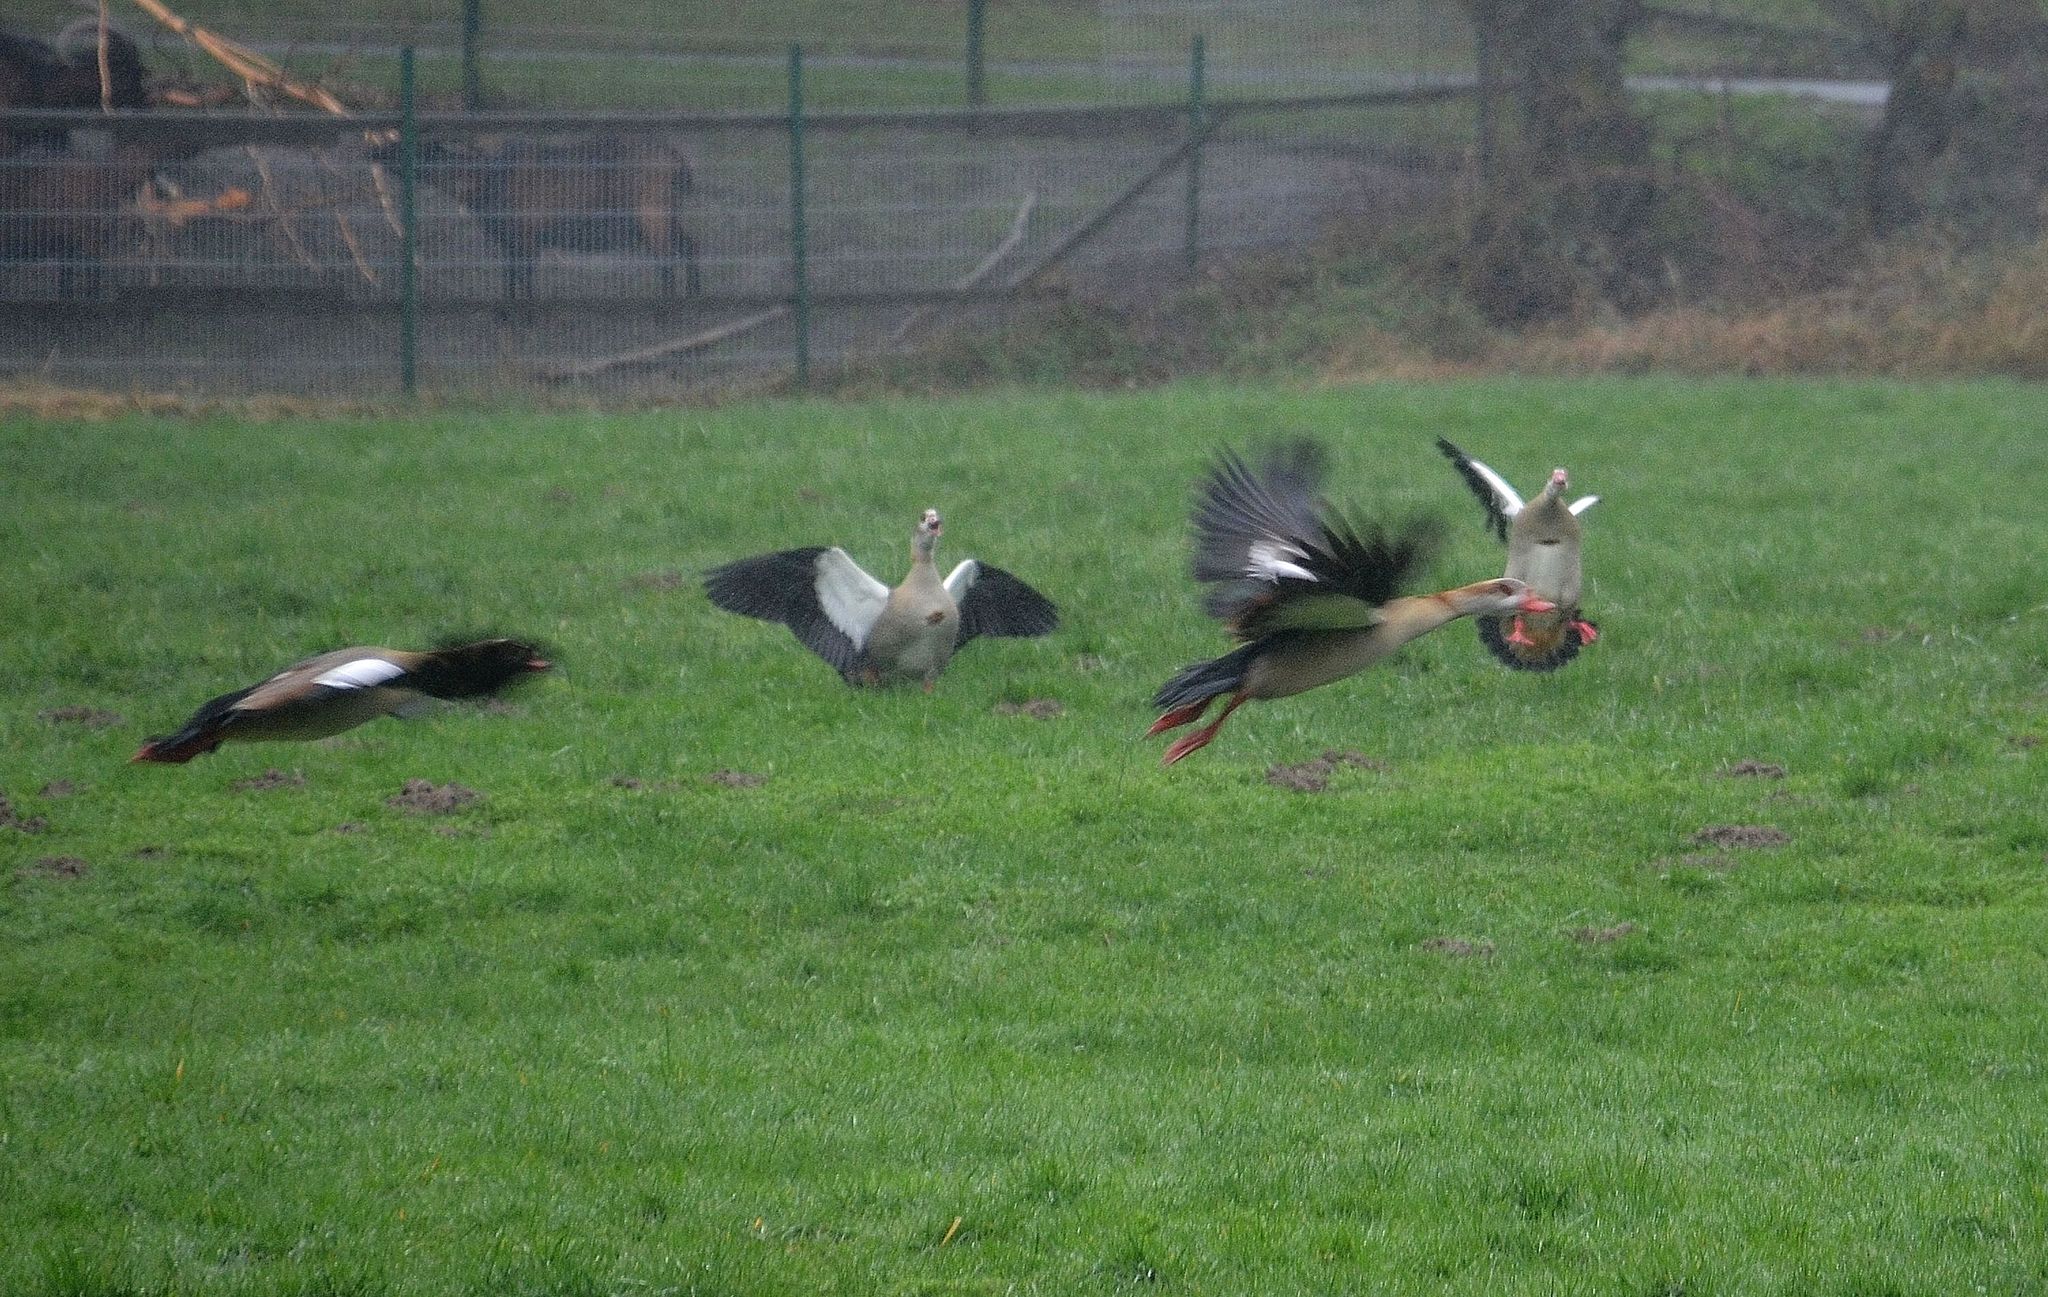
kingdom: Animalia
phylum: Chordata
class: Aves
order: Anseriformes
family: Anatidae
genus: Alopochen
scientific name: Alopochen aegyptiaca
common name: Egyptian goose
